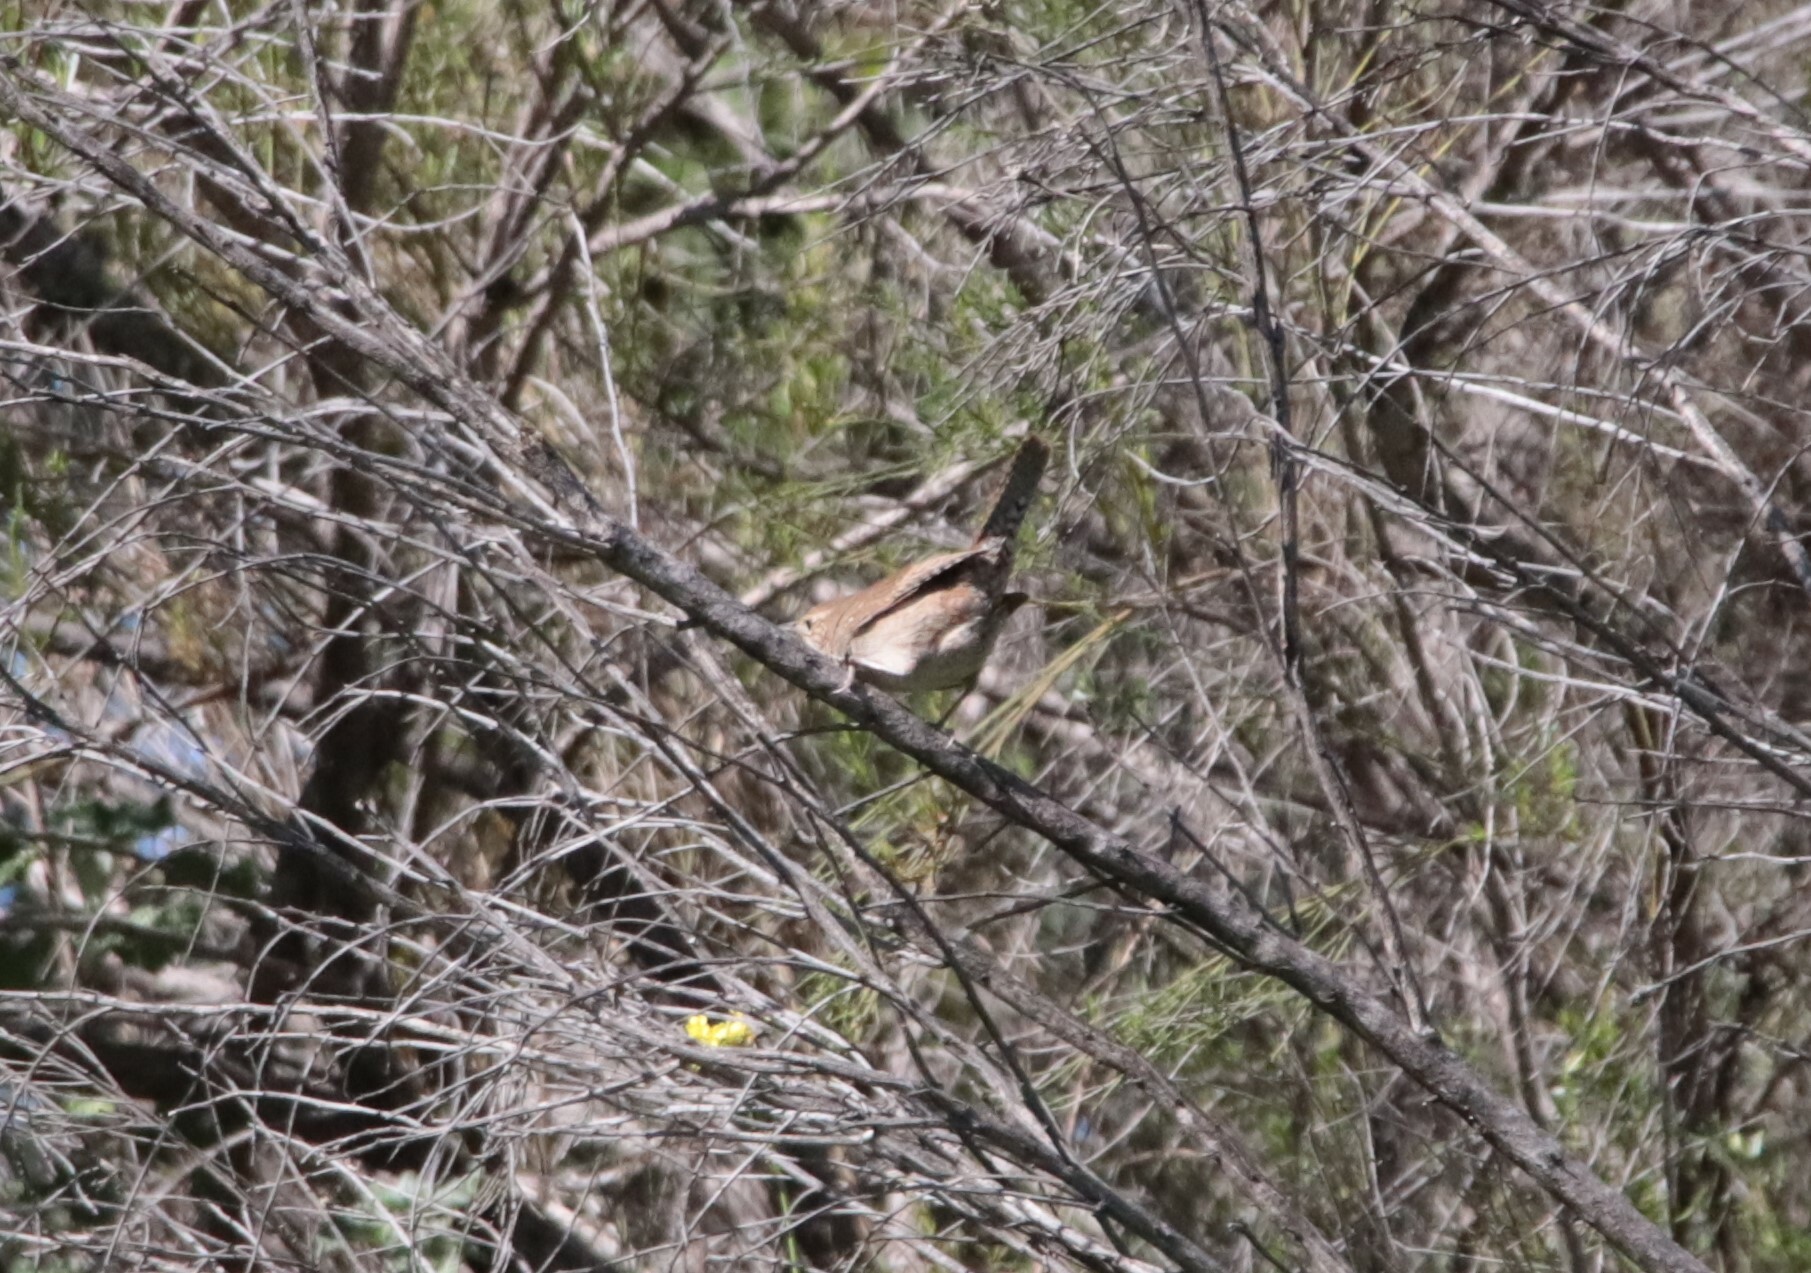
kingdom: Animalia
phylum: Chordata
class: Aves
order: Passeriformes
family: Troglodytidae
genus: Troglodytes
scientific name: Troglodytes aedon
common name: House wren
